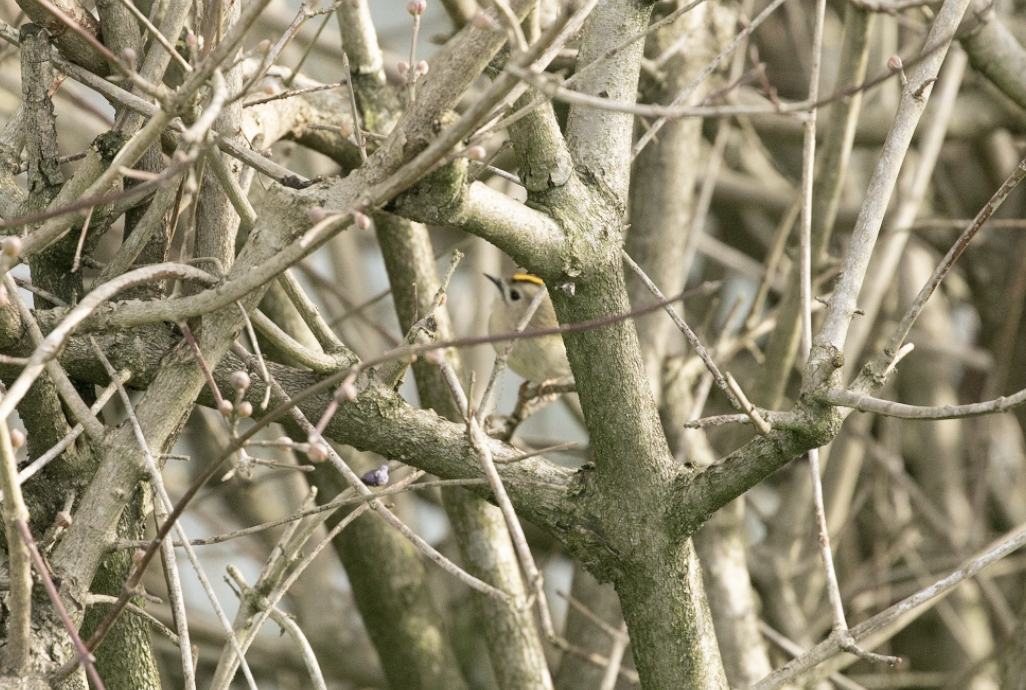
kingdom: Animalia
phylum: Chordata
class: Aves
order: Passeriformes
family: Regulidae
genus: Regulus
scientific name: Regulus regulus
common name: Goldcrest
